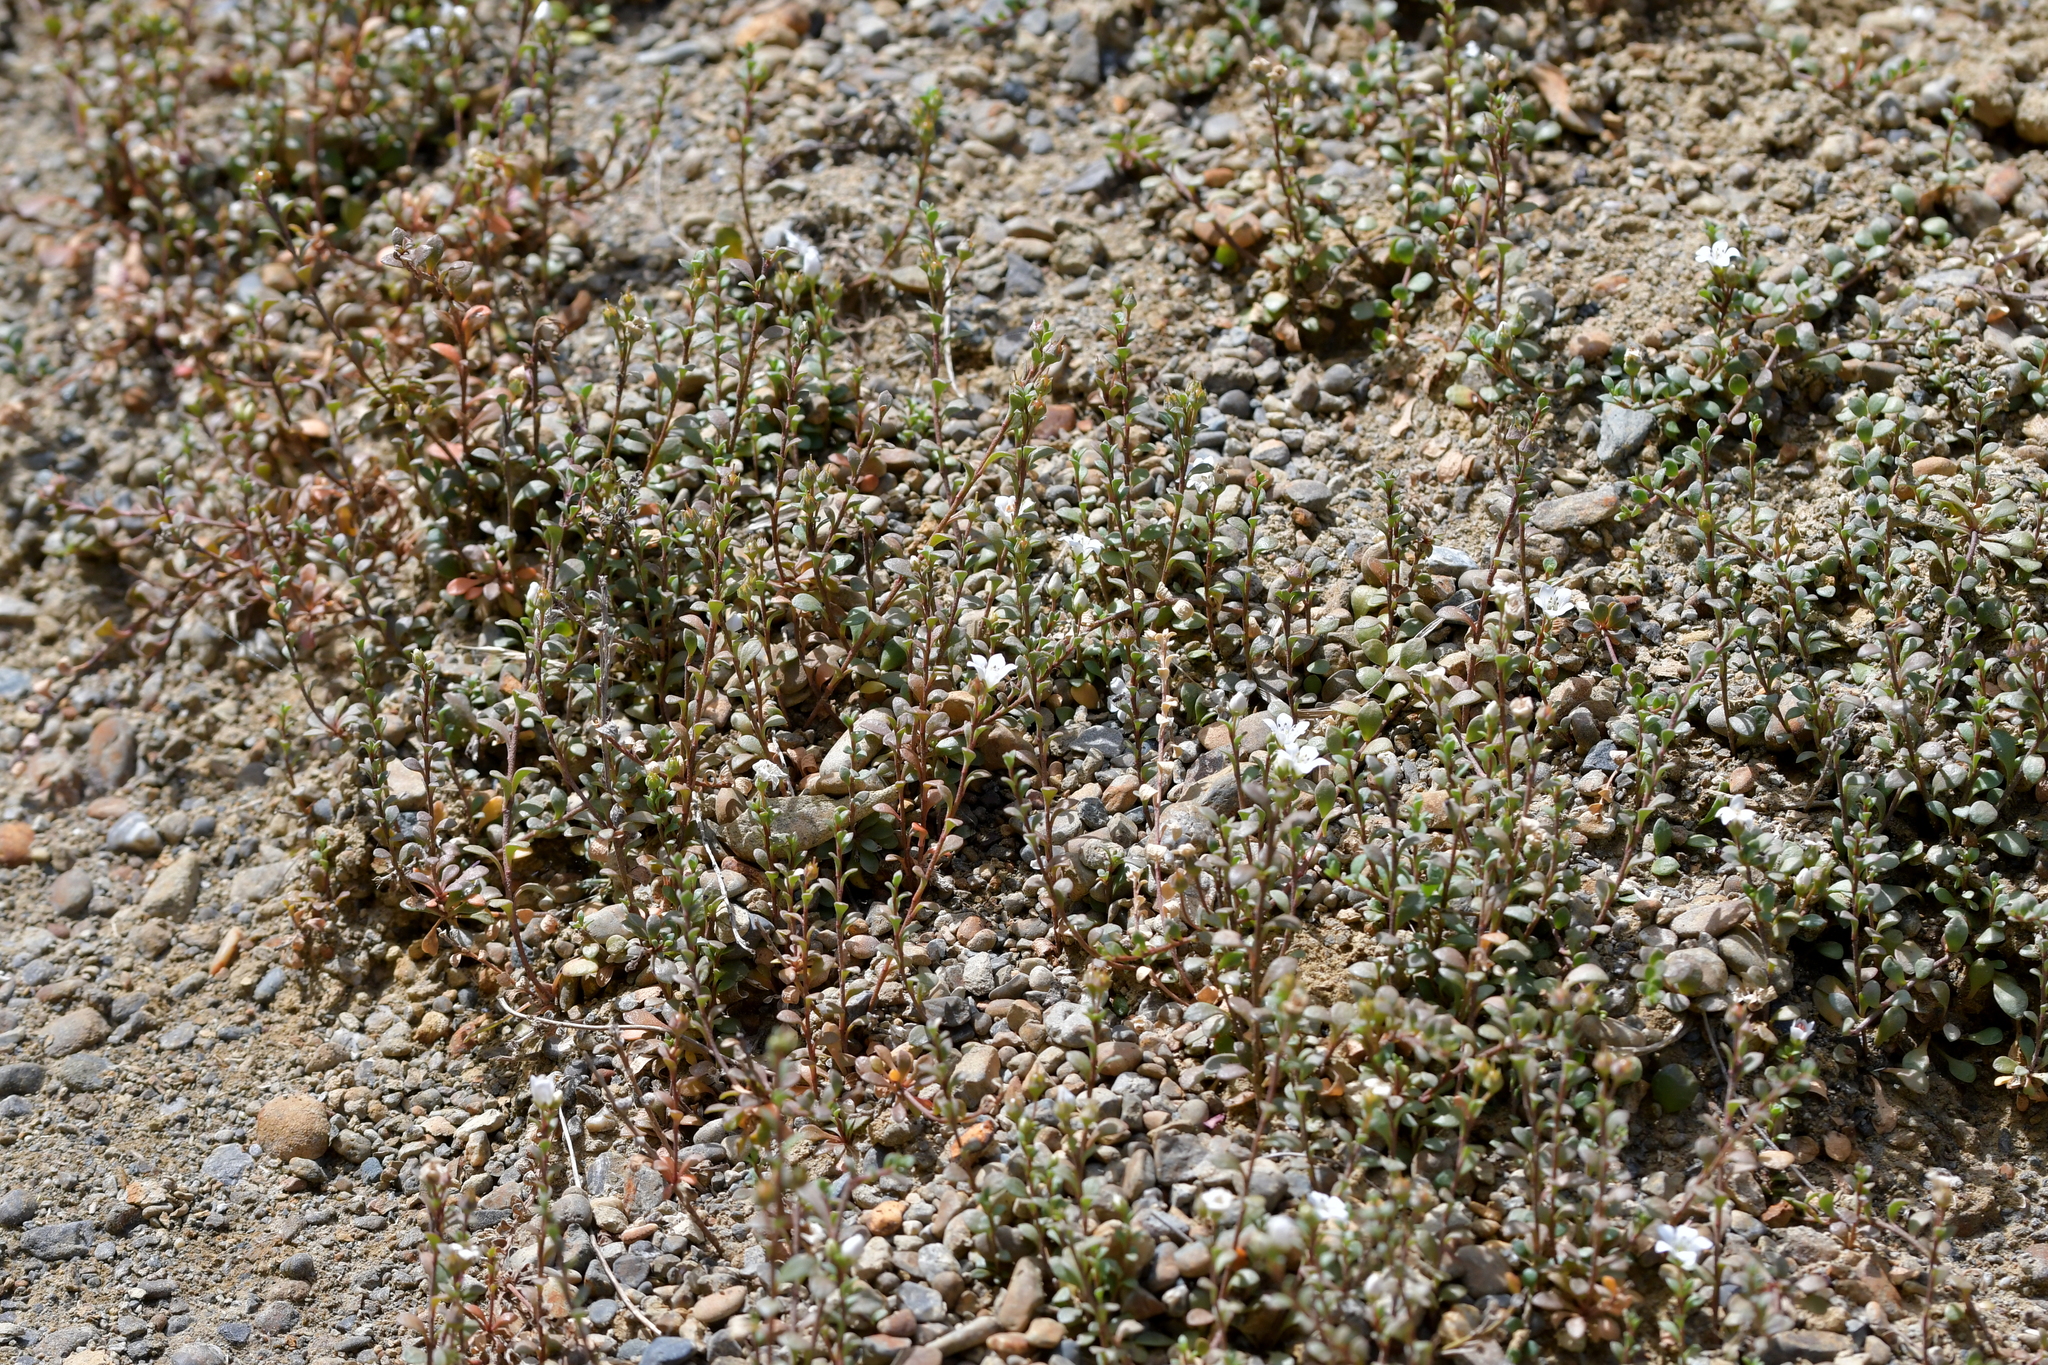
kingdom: Plantae
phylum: Tracheophyta
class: Magnoliopsida
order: Ericales
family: Primulaceae
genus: Samolus
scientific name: Samolus repens
